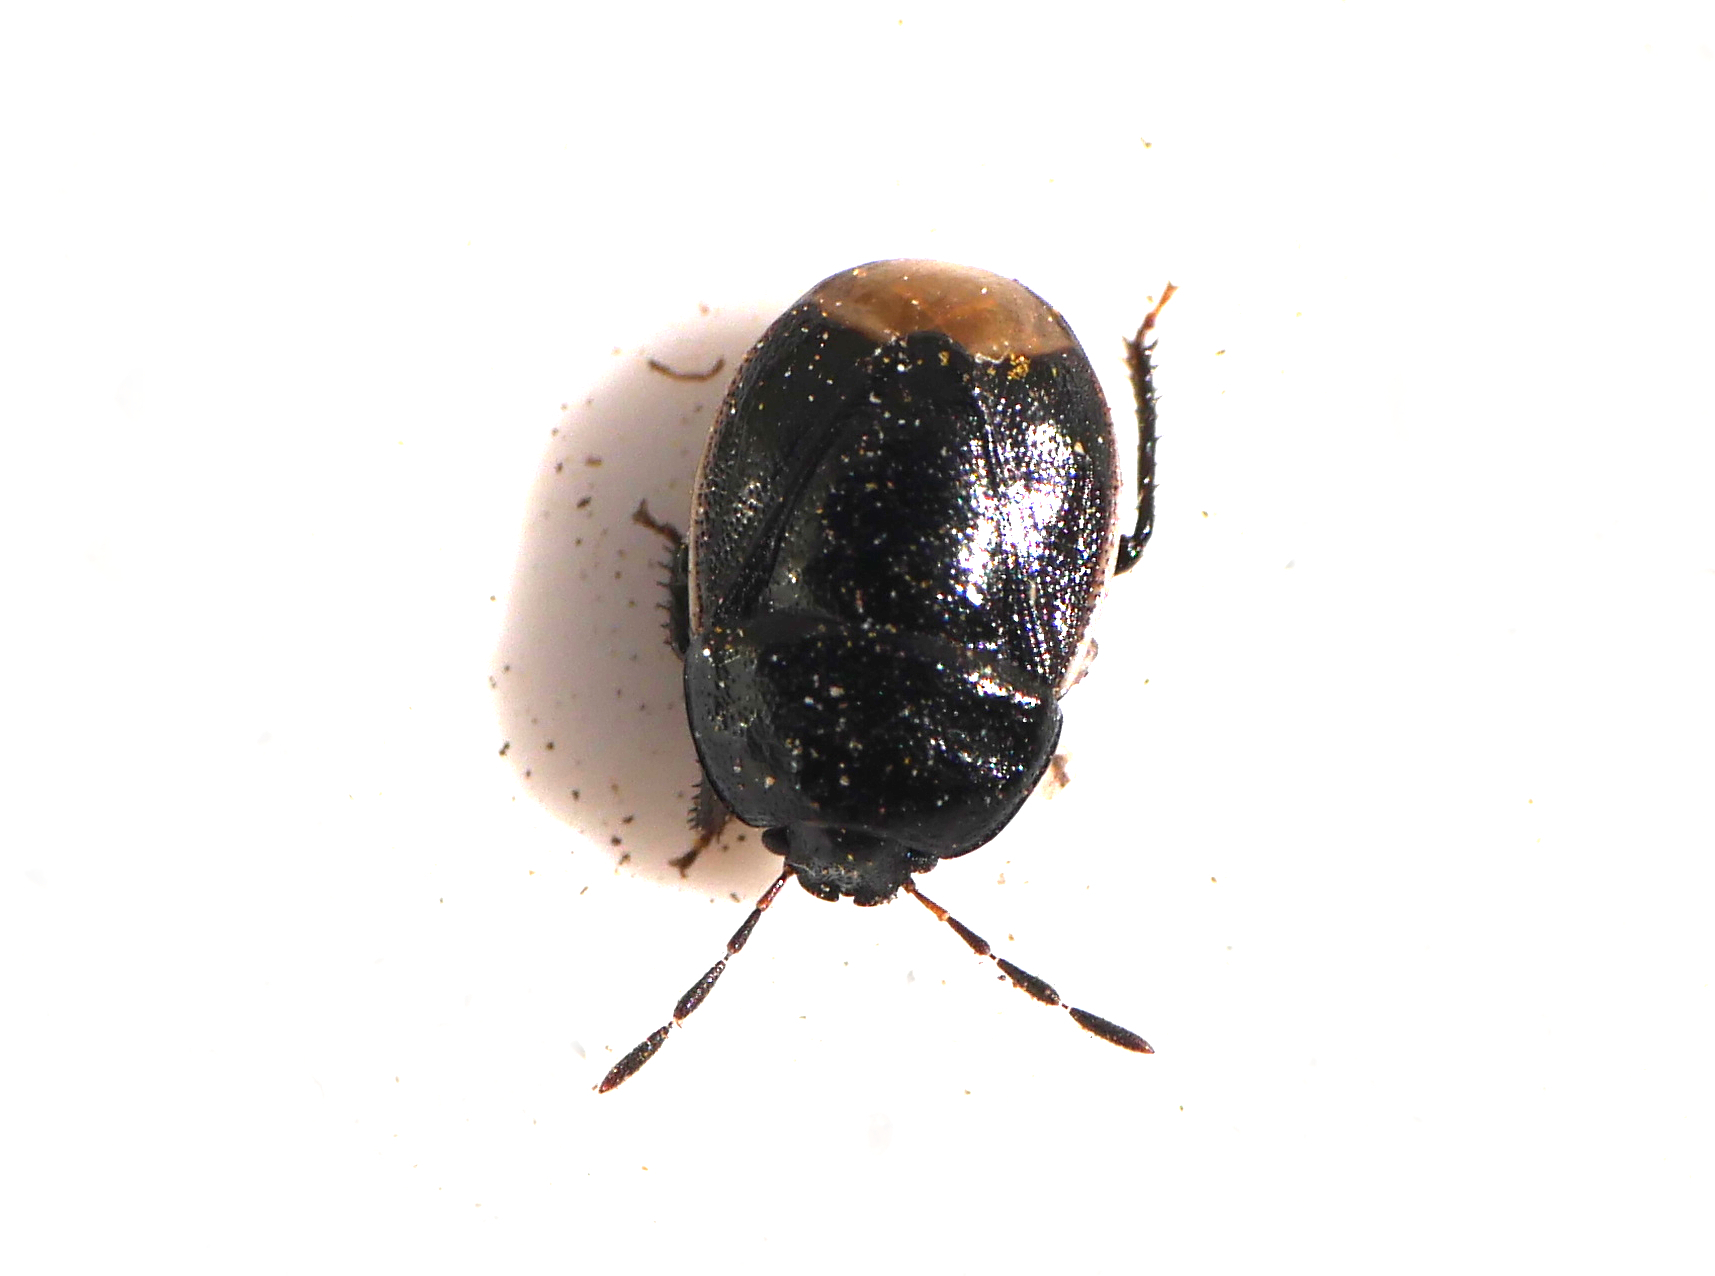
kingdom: Animalia
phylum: Arthropoda
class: Insecta
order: Hemiptera
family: Cydnidae
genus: Legnotus
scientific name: Legnotus limbosus
